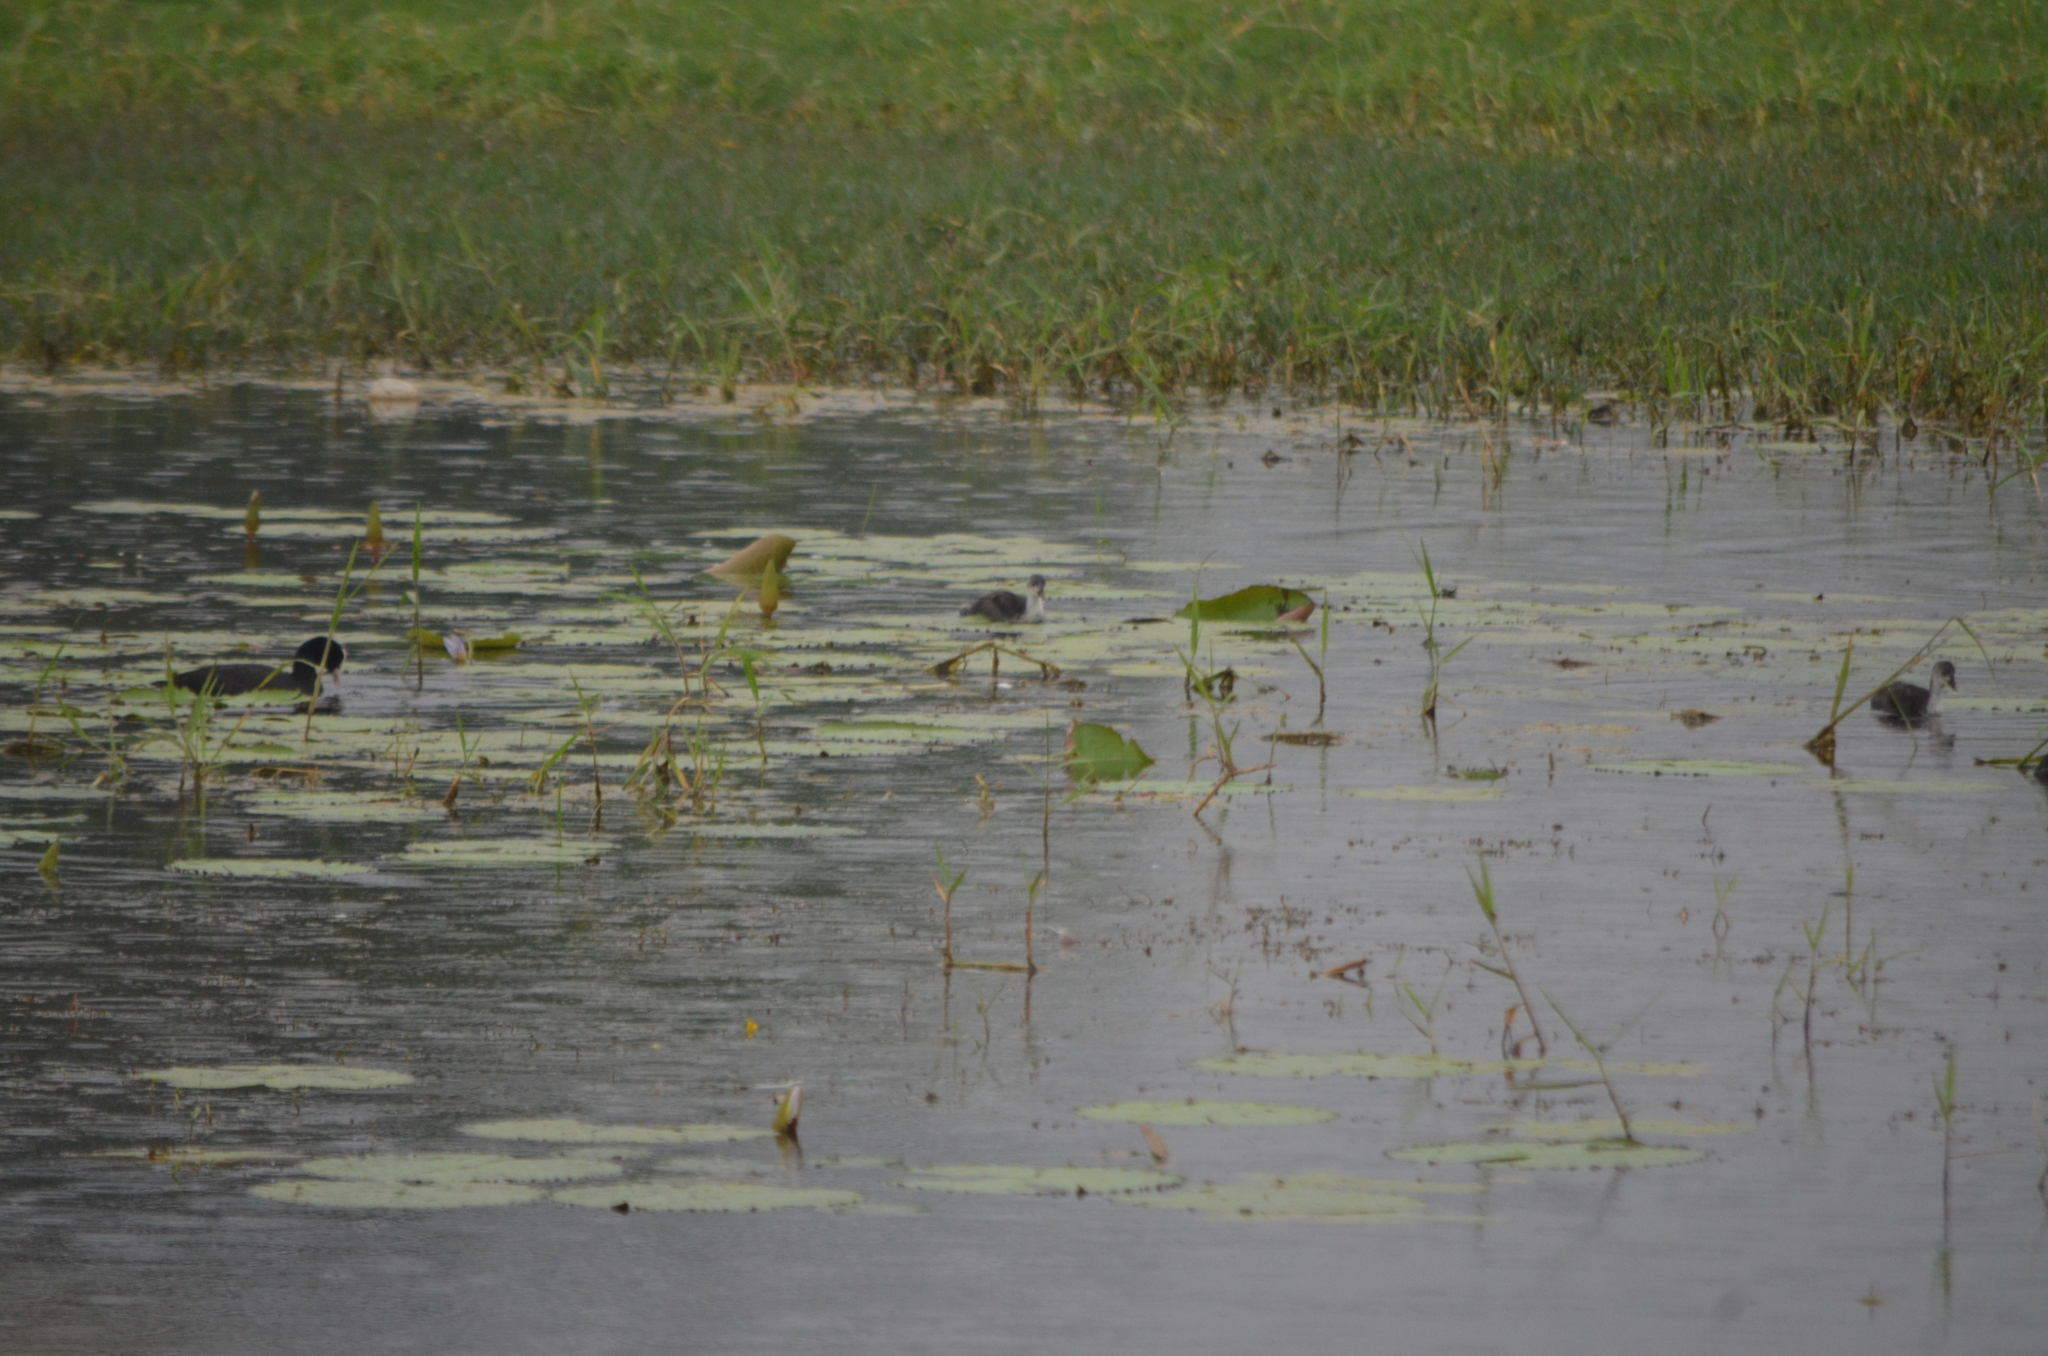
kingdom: Animalia
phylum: Chordata
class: Aves
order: Gruiformes
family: Rallidae
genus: Fulica
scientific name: Fulica atra
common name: Eurasian coot
